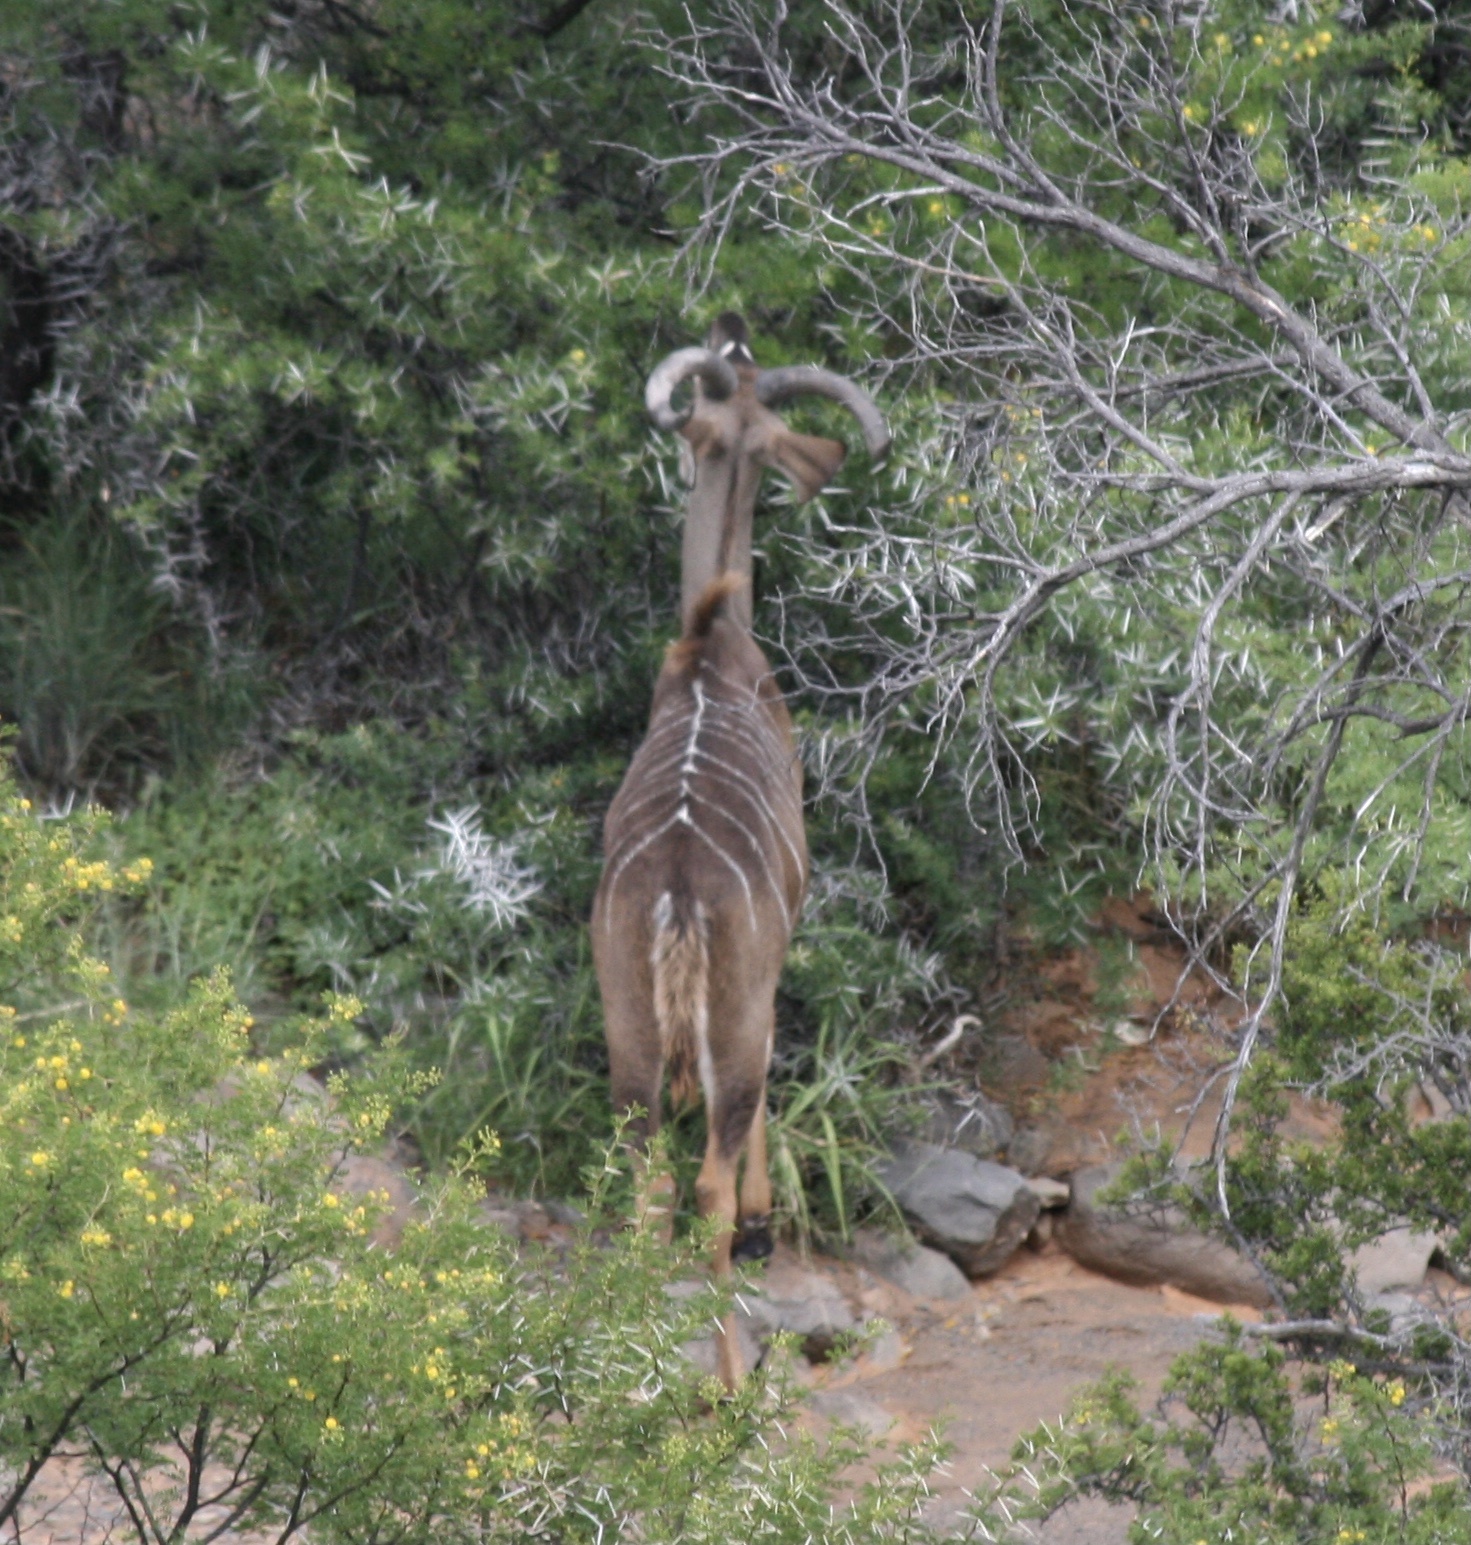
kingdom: Animalia
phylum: Chordata
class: Mammalia
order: Artiodactyla
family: Bovidae
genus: Tragelaphus
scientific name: Tragelaphus strepsiceros
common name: Greater kudu
